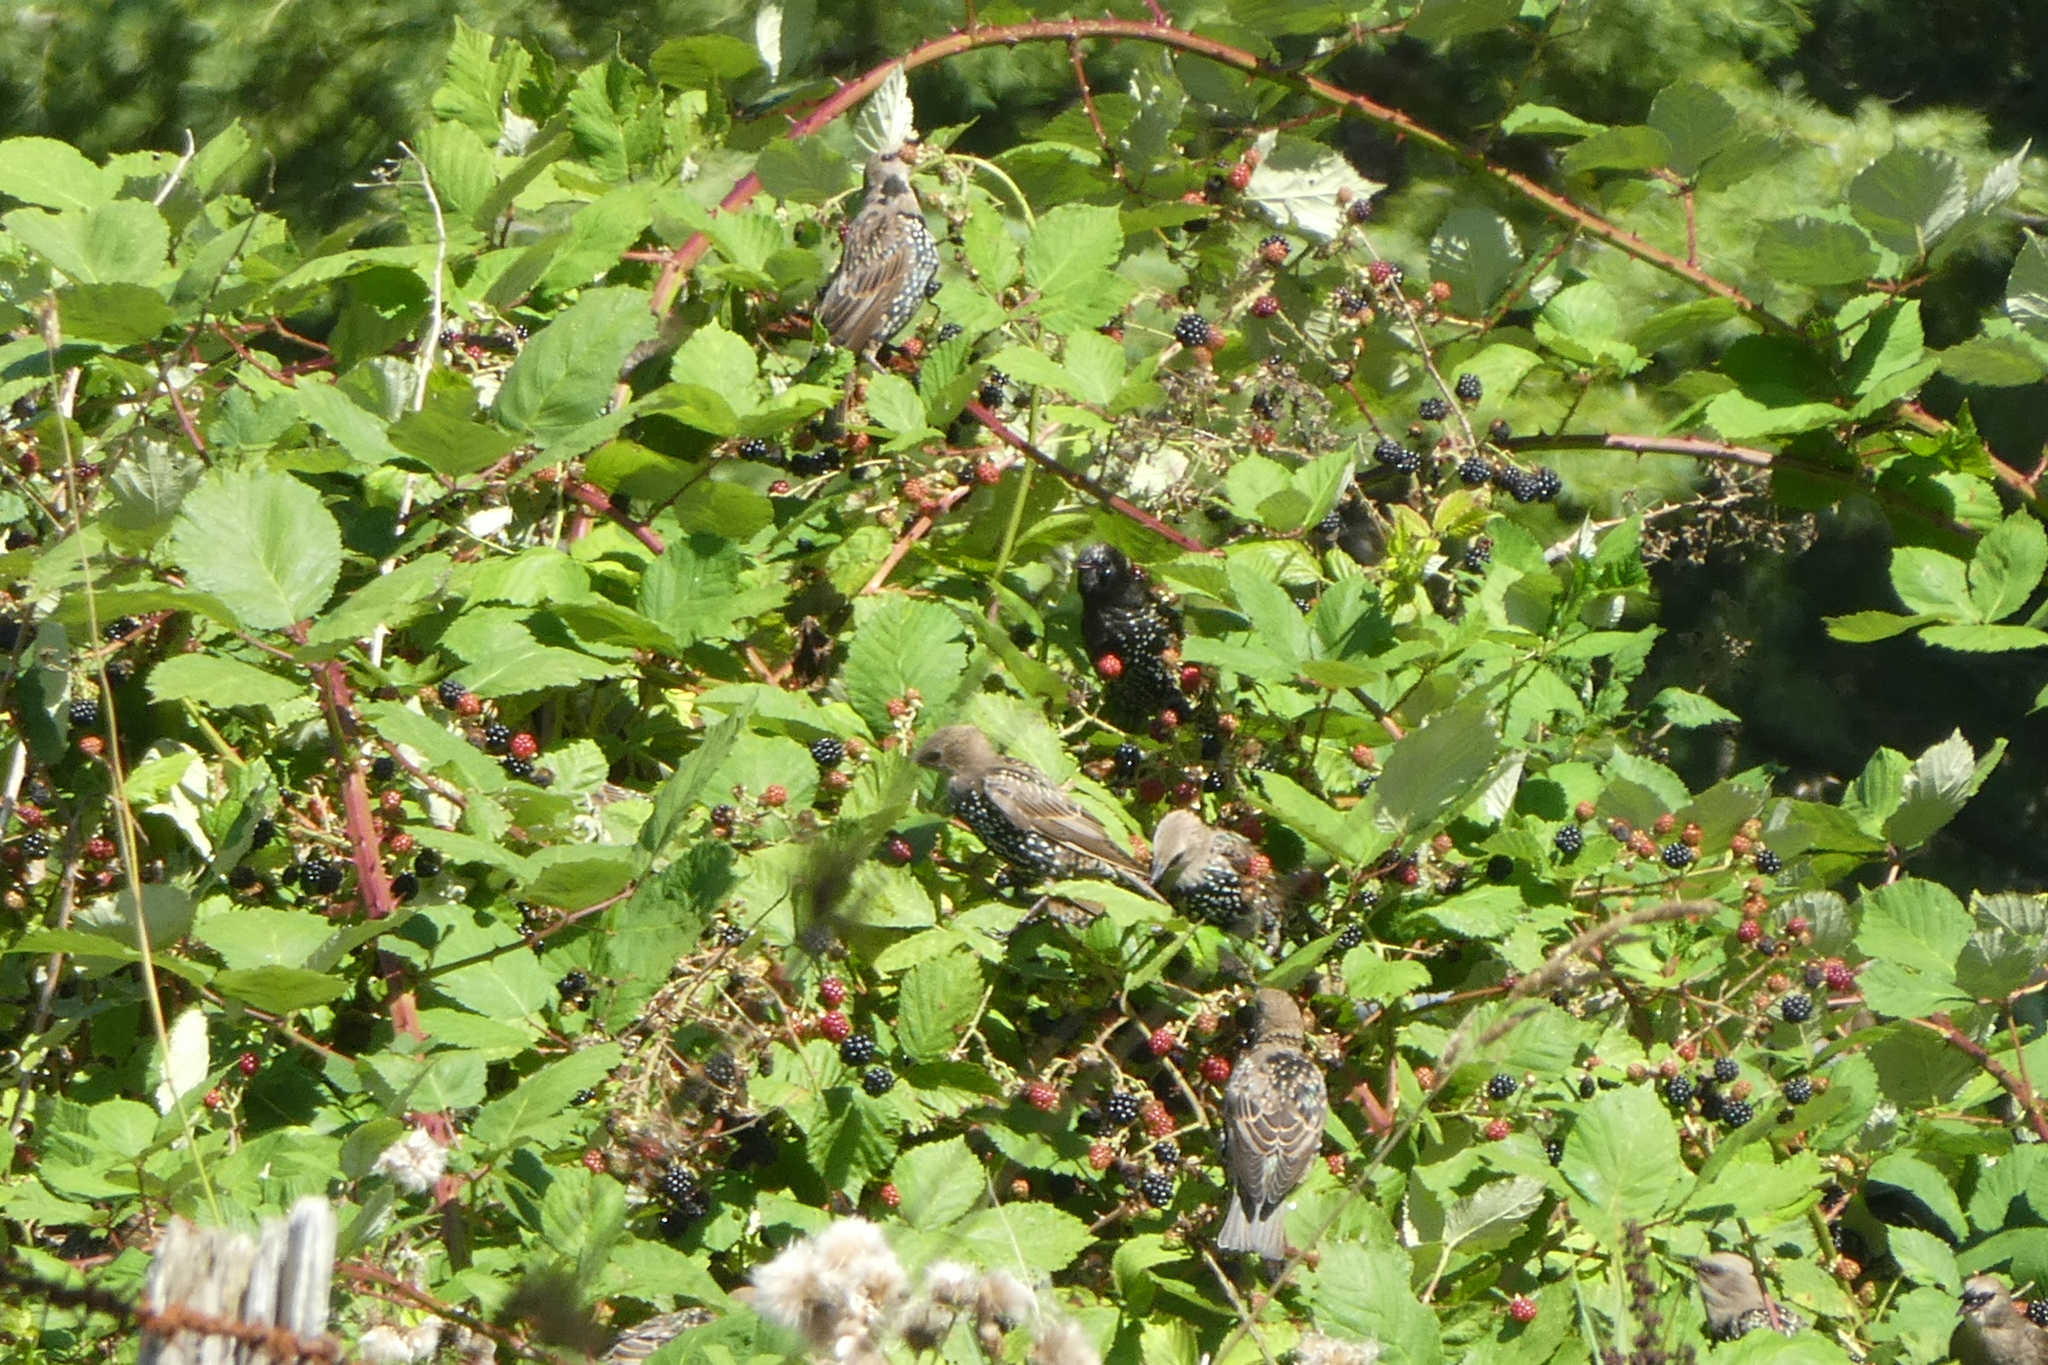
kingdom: Animalia
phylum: Chordata
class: Aves
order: Passeriformes
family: Sturnidae
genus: Sturnus
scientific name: Sturnus vulgaris
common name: Common starling
